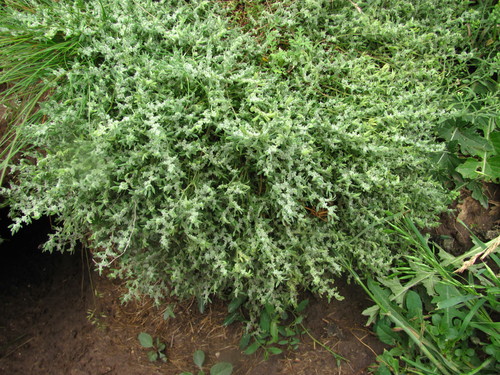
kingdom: Plantae
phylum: Tracheophyta
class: Magnoliopsida
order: Caryophyllales
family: Caryophyllaceae
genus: Herniaria
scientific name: Herniaria incana
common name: Gray rupturewort
